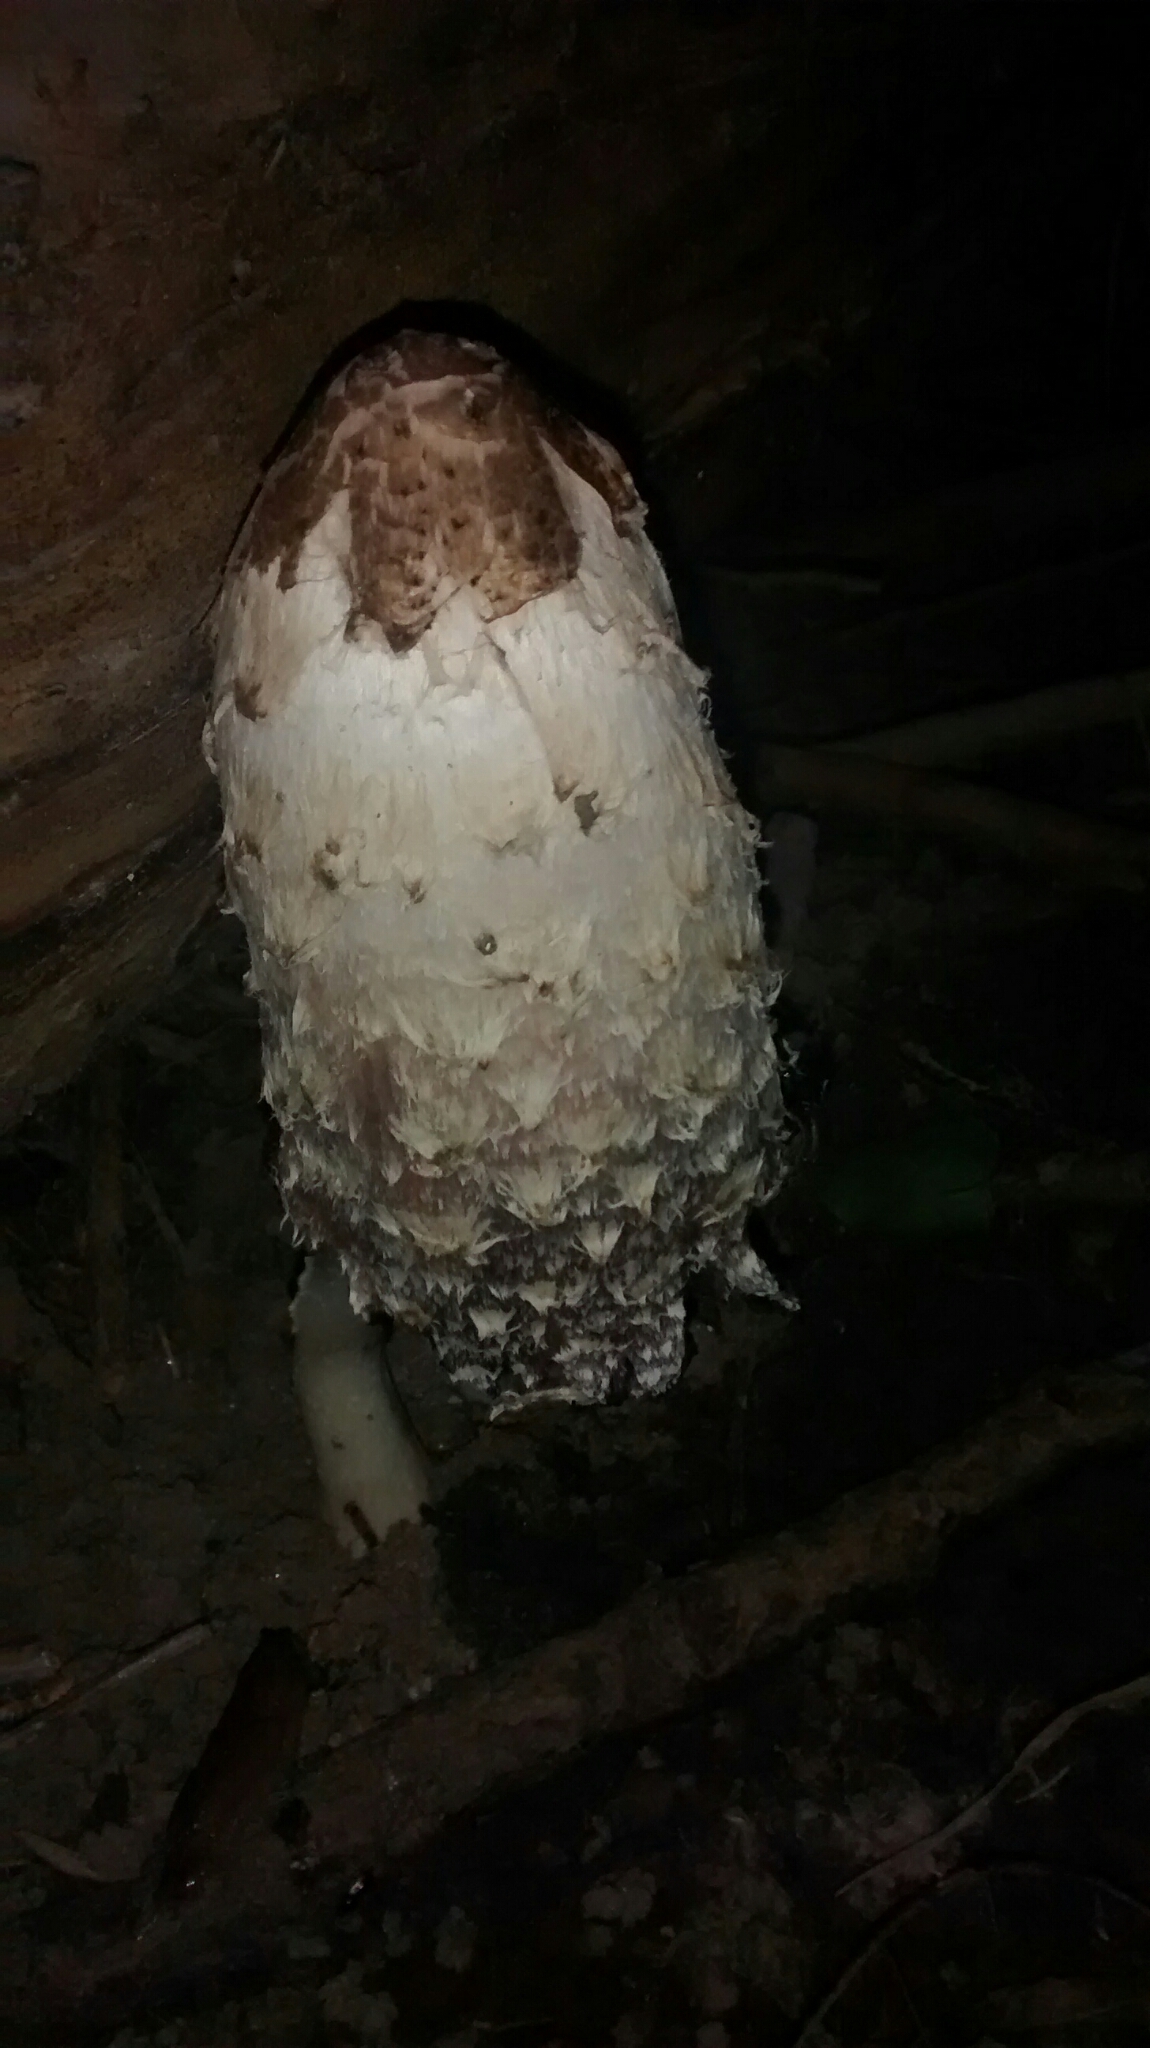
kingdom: Fungi
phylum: Basidiomycota
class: Agaricomycetes
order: Agaricales
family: Agaricaceae
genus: Coprinus
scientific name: Coprinus comatus
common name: Lawyer's wig
